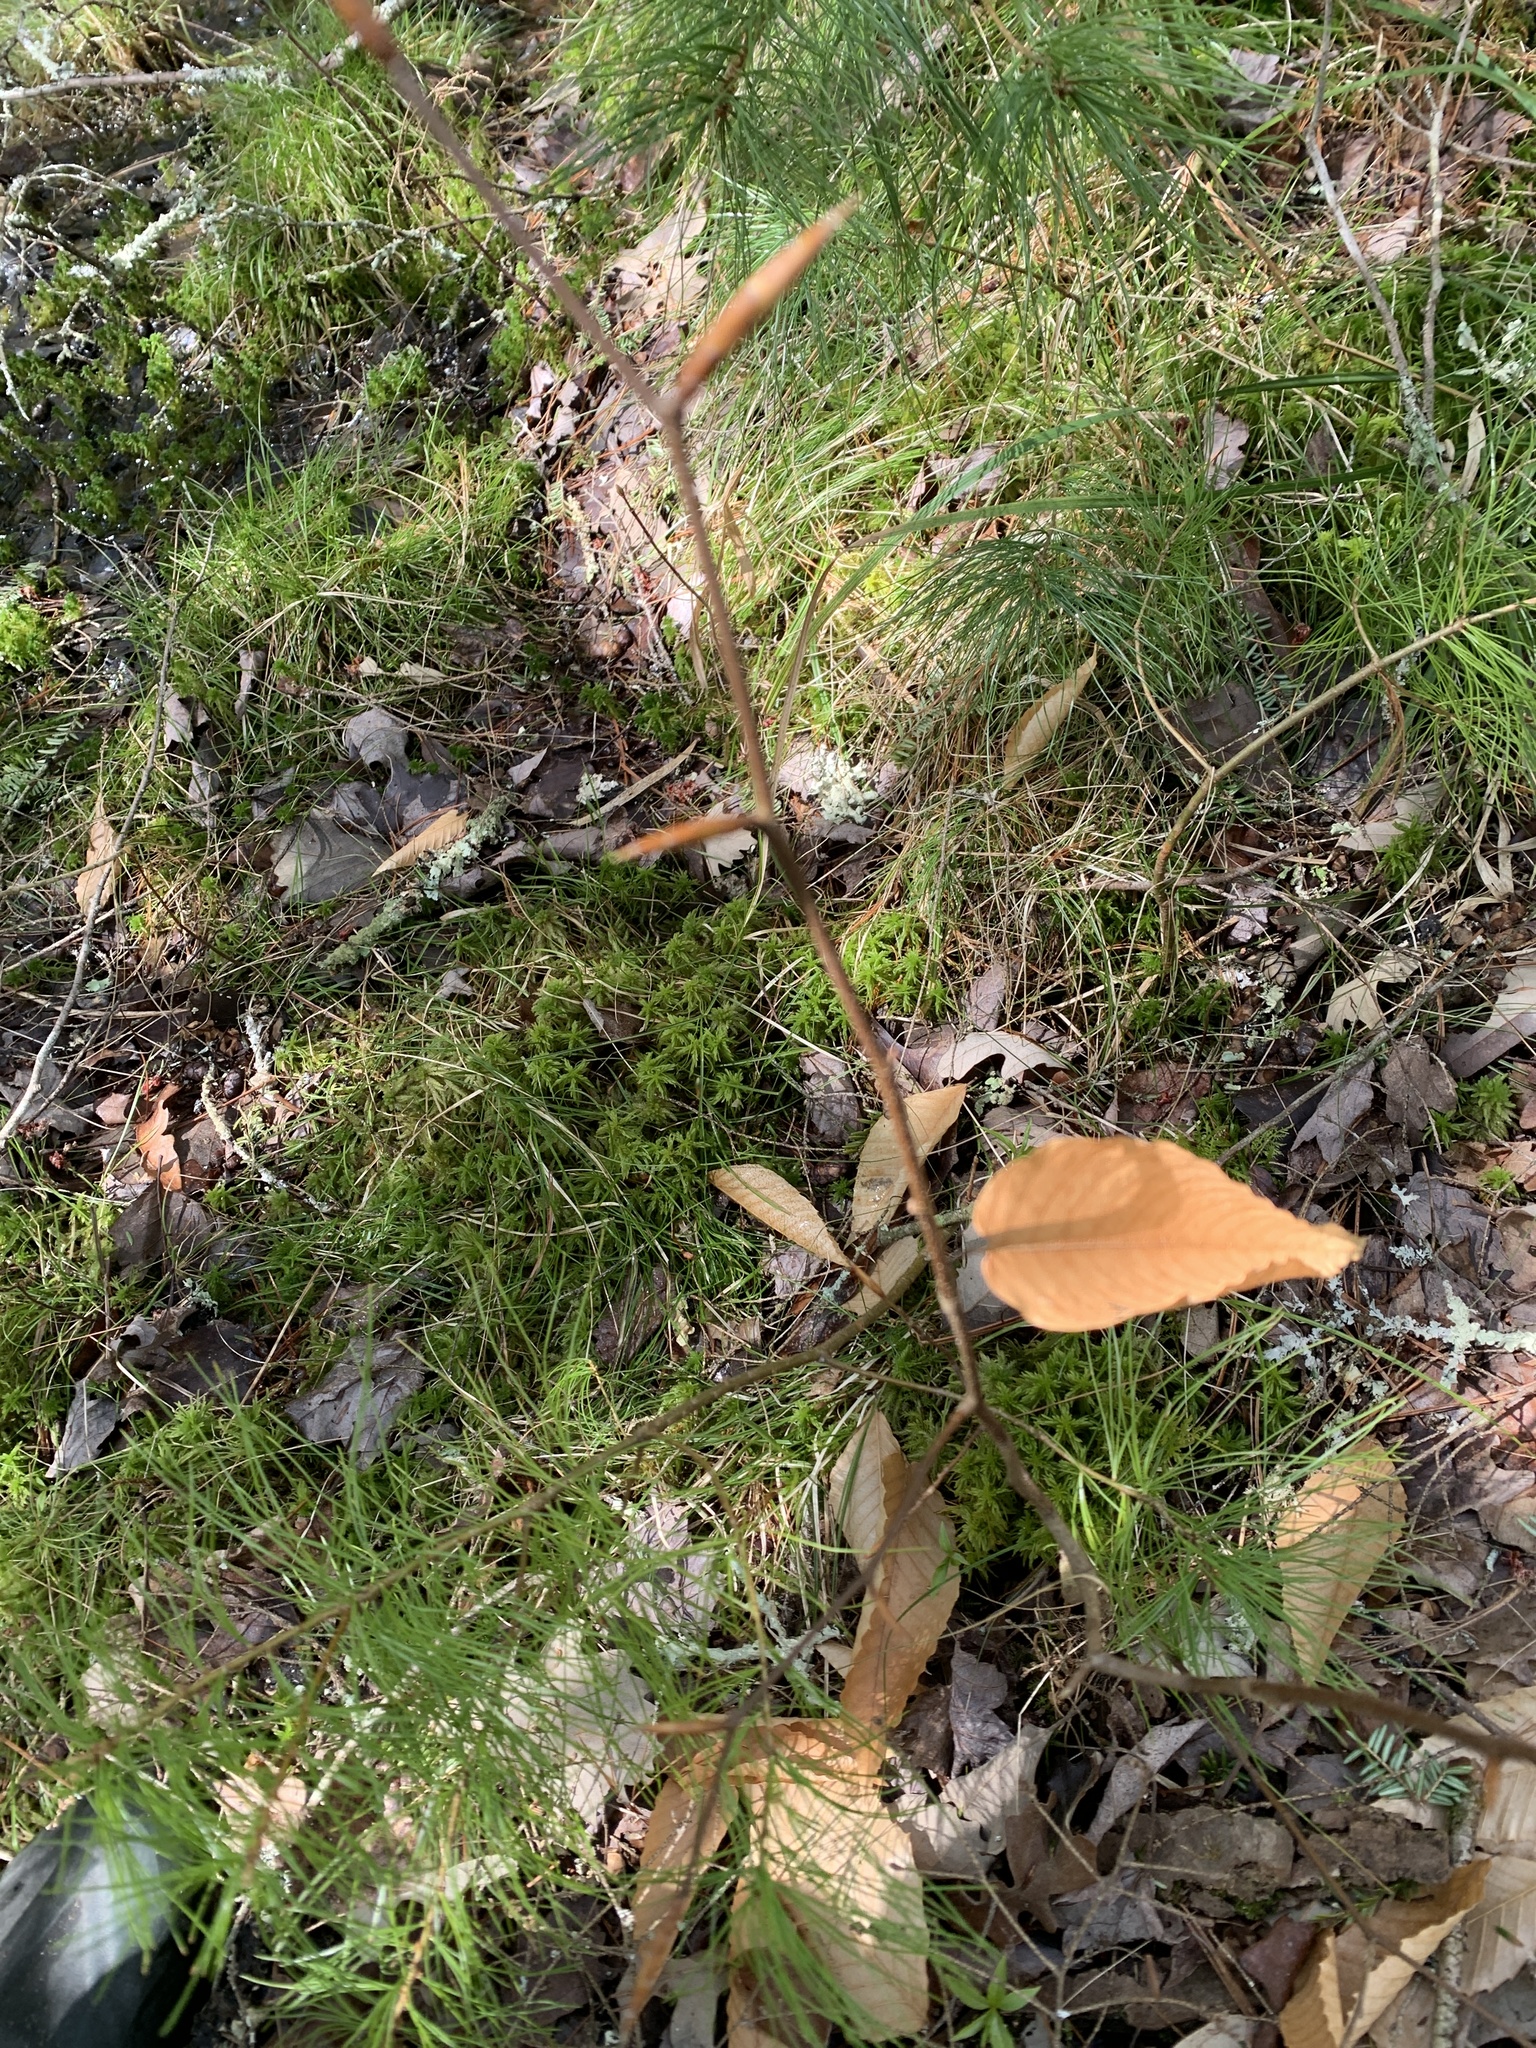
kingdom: Plantae
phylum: Tracheophyta
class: Magnoliopsida
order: Fagales
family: Fagaceae
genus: Fagus
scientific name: Fagus grandifolia
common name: American beech
